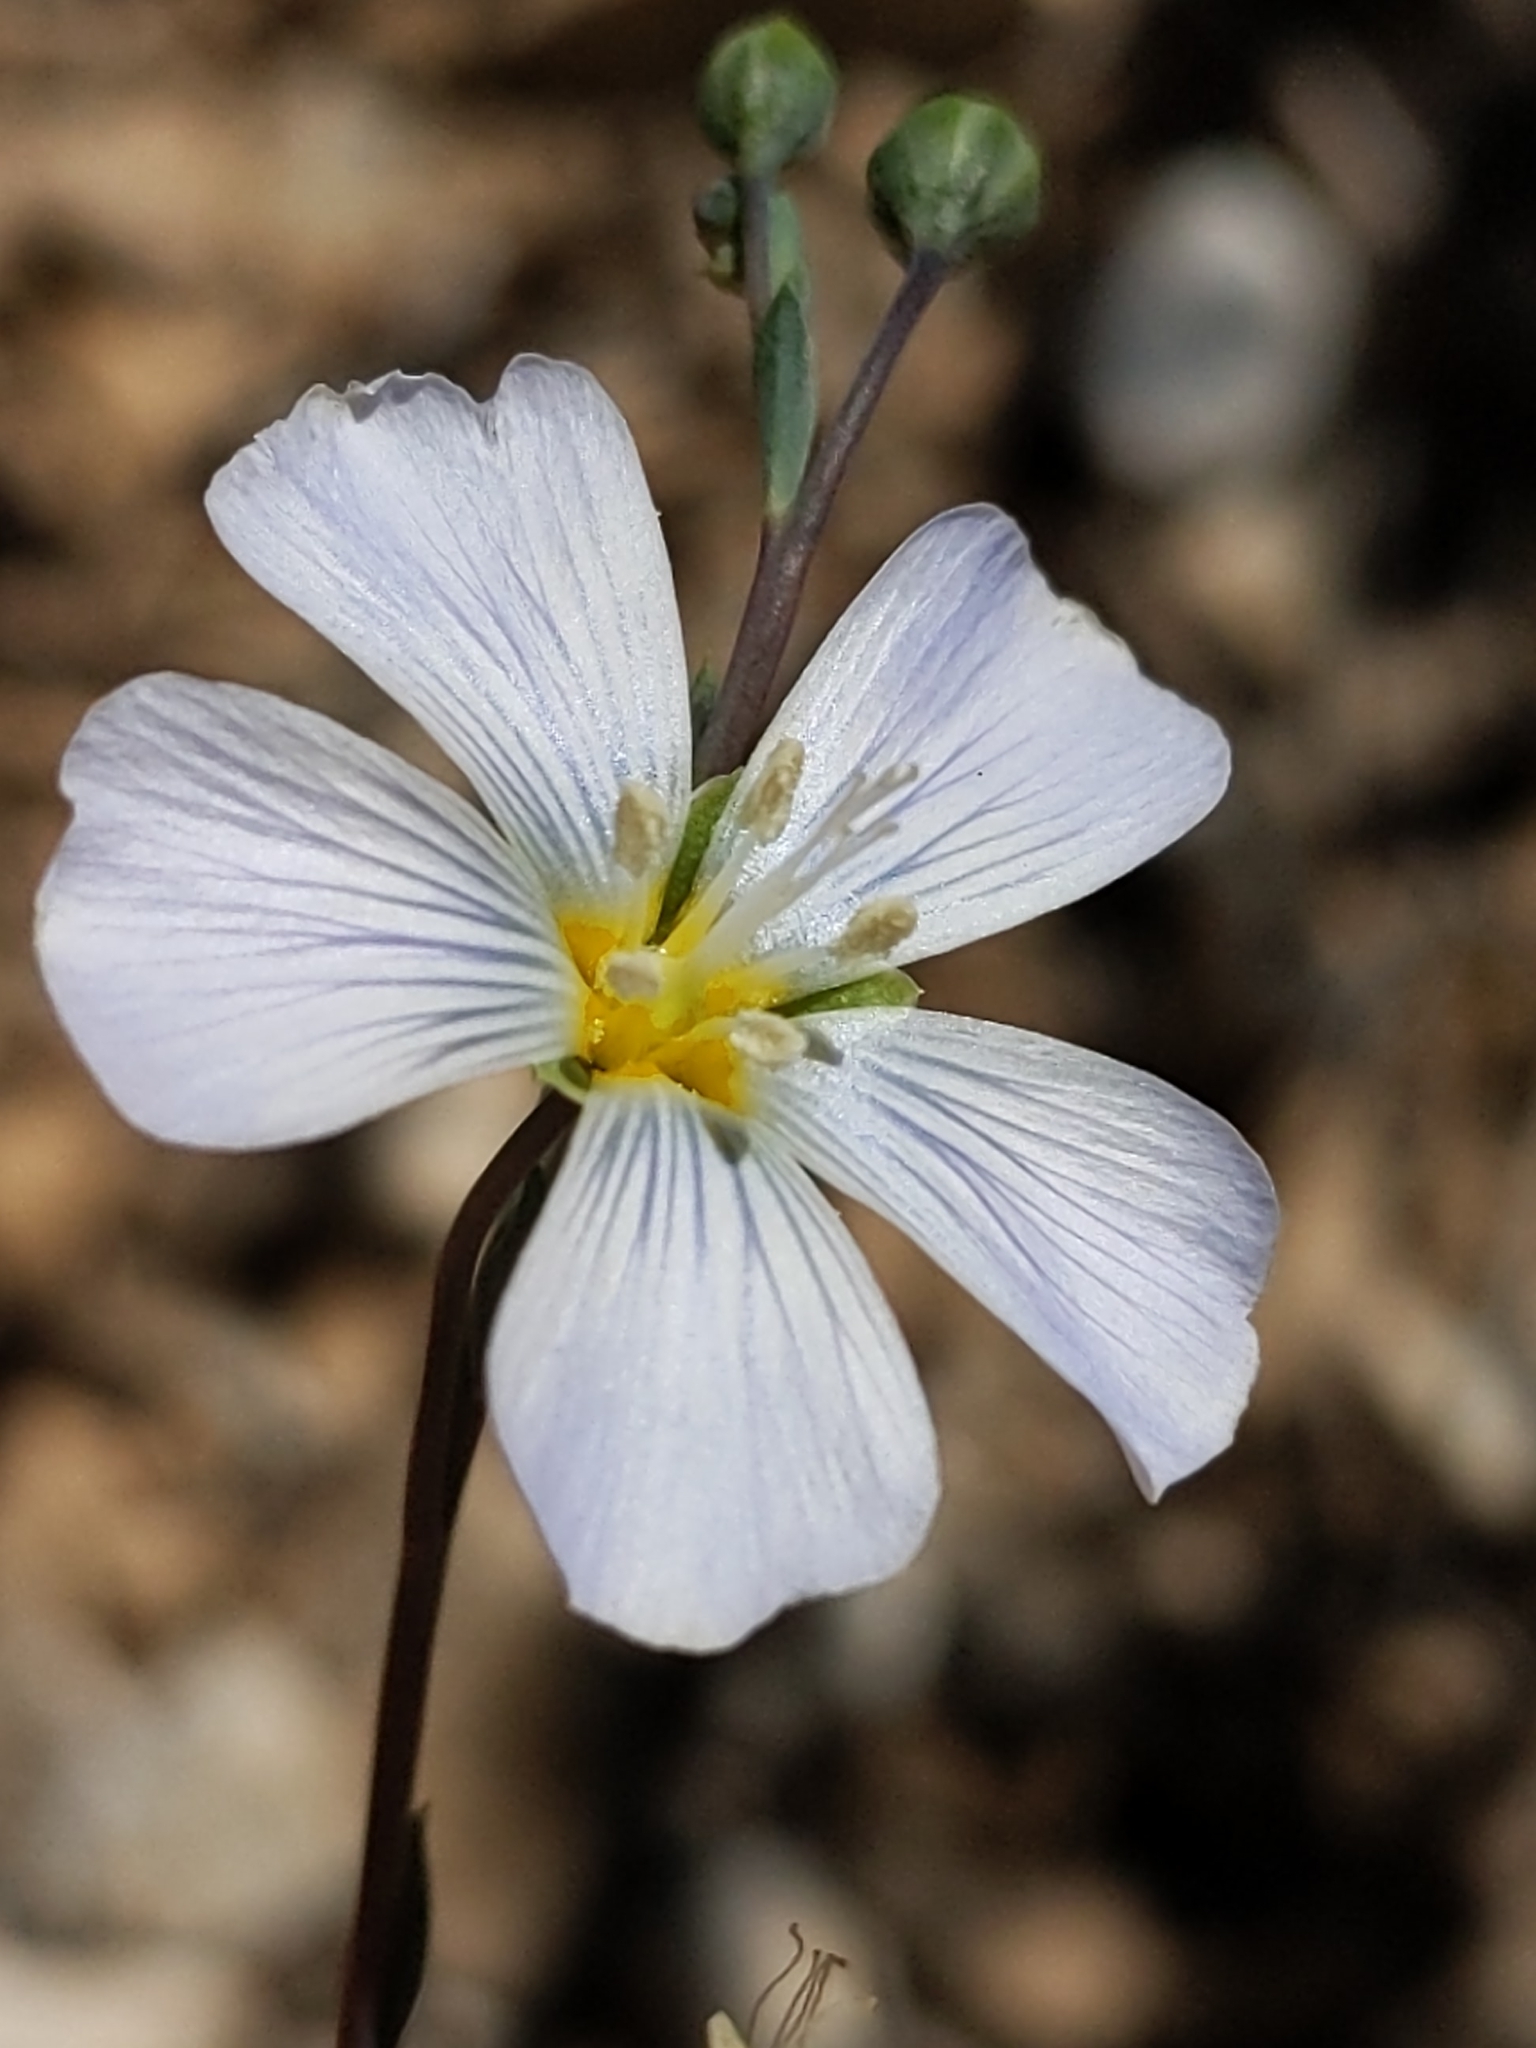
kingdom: Plantae
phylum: Tracheophyta
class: Magnoliopsida
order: Malpighiales
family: Linaceae
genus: Linum
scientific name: Linum lewisii
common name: Prairie flax
